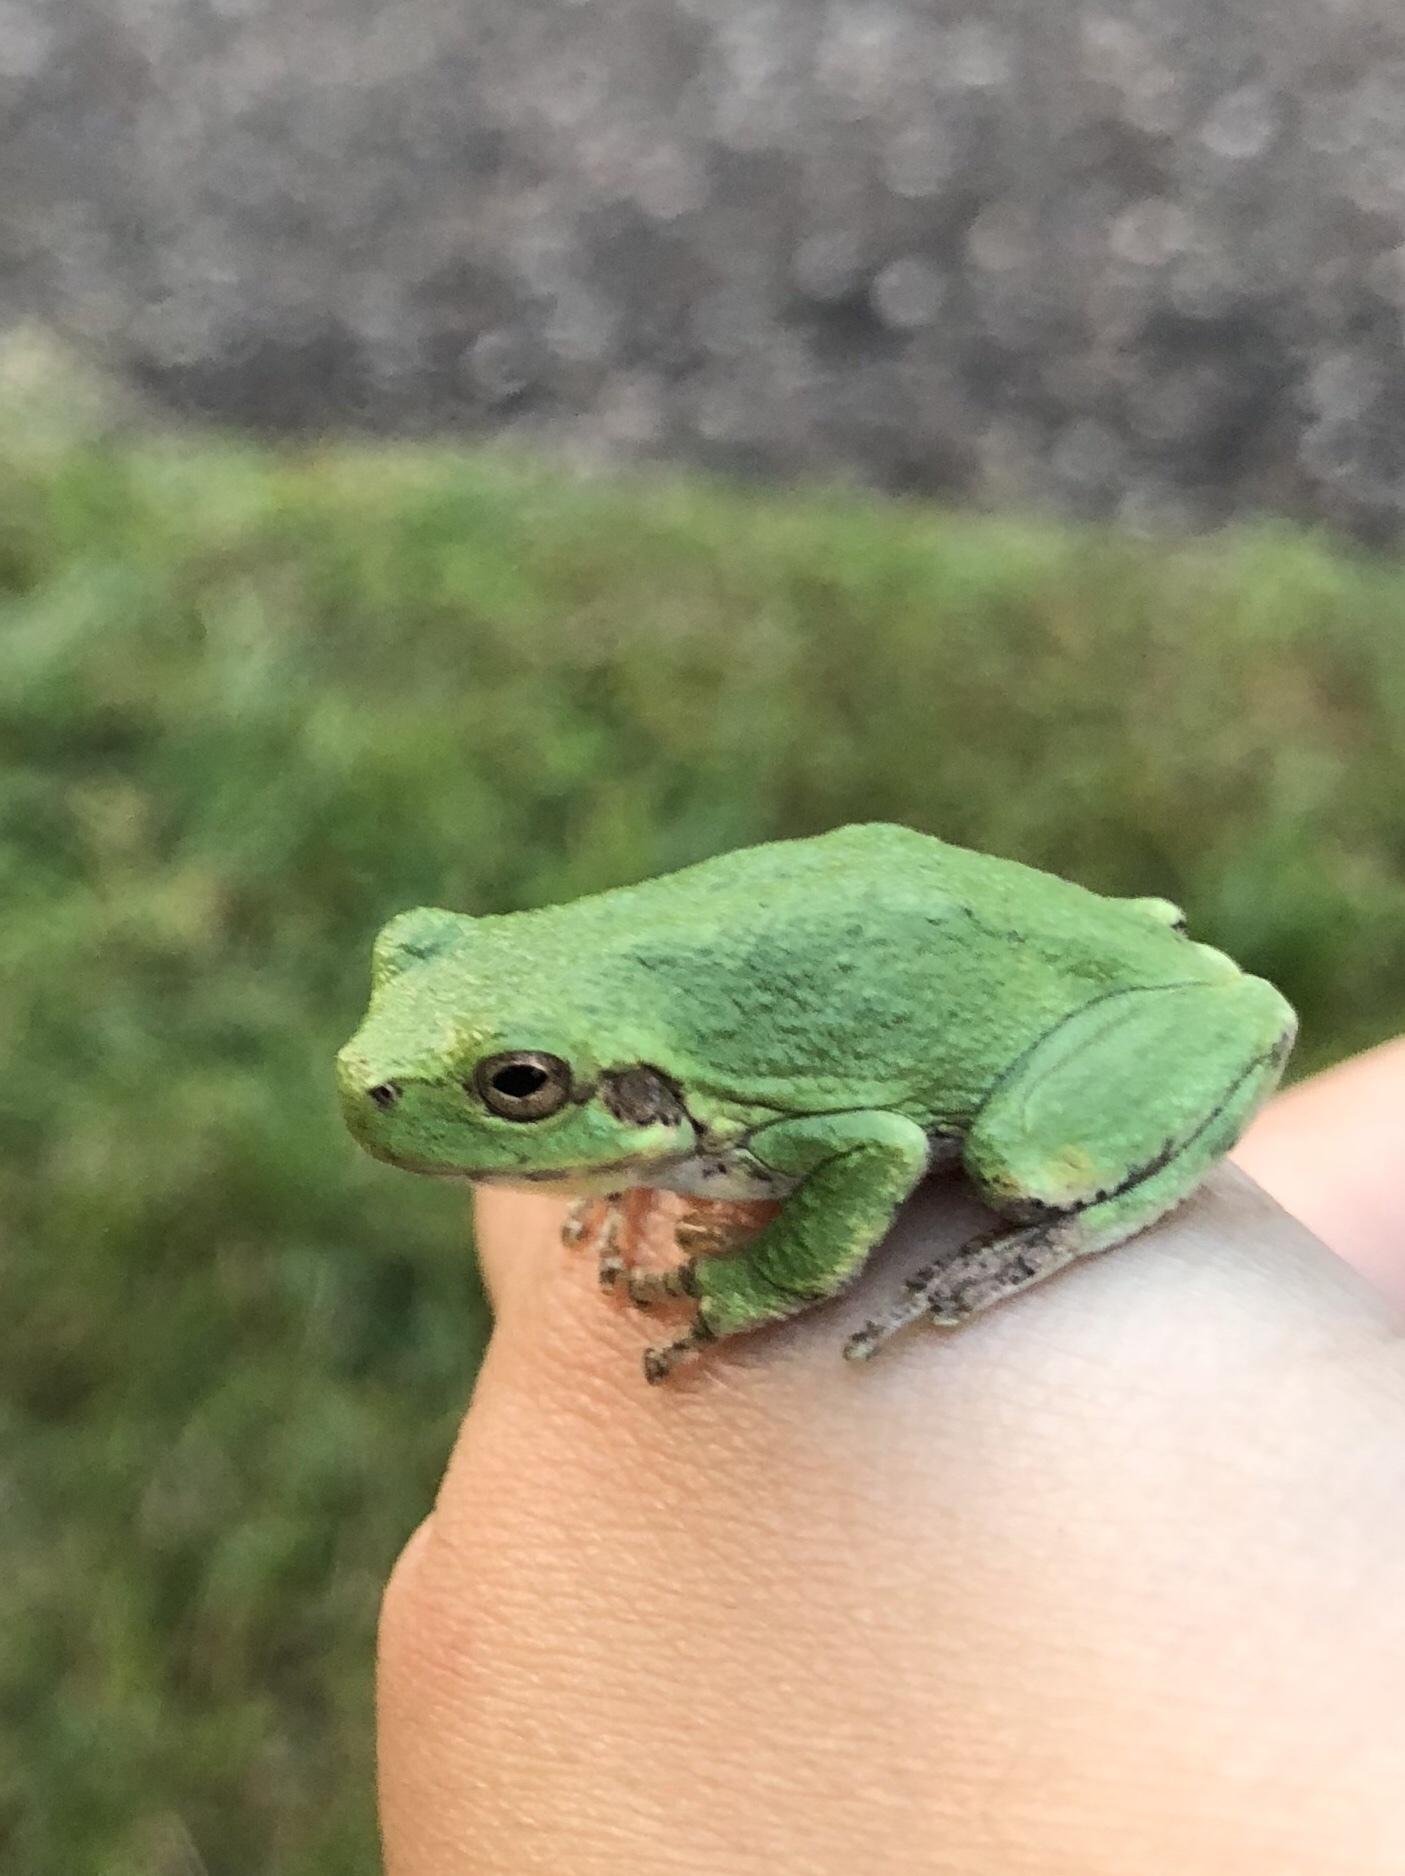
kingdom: Animalia
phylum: Chordata
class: Amphibia
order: Anura
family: Hylidae
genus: Hyla
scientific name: Hyla
